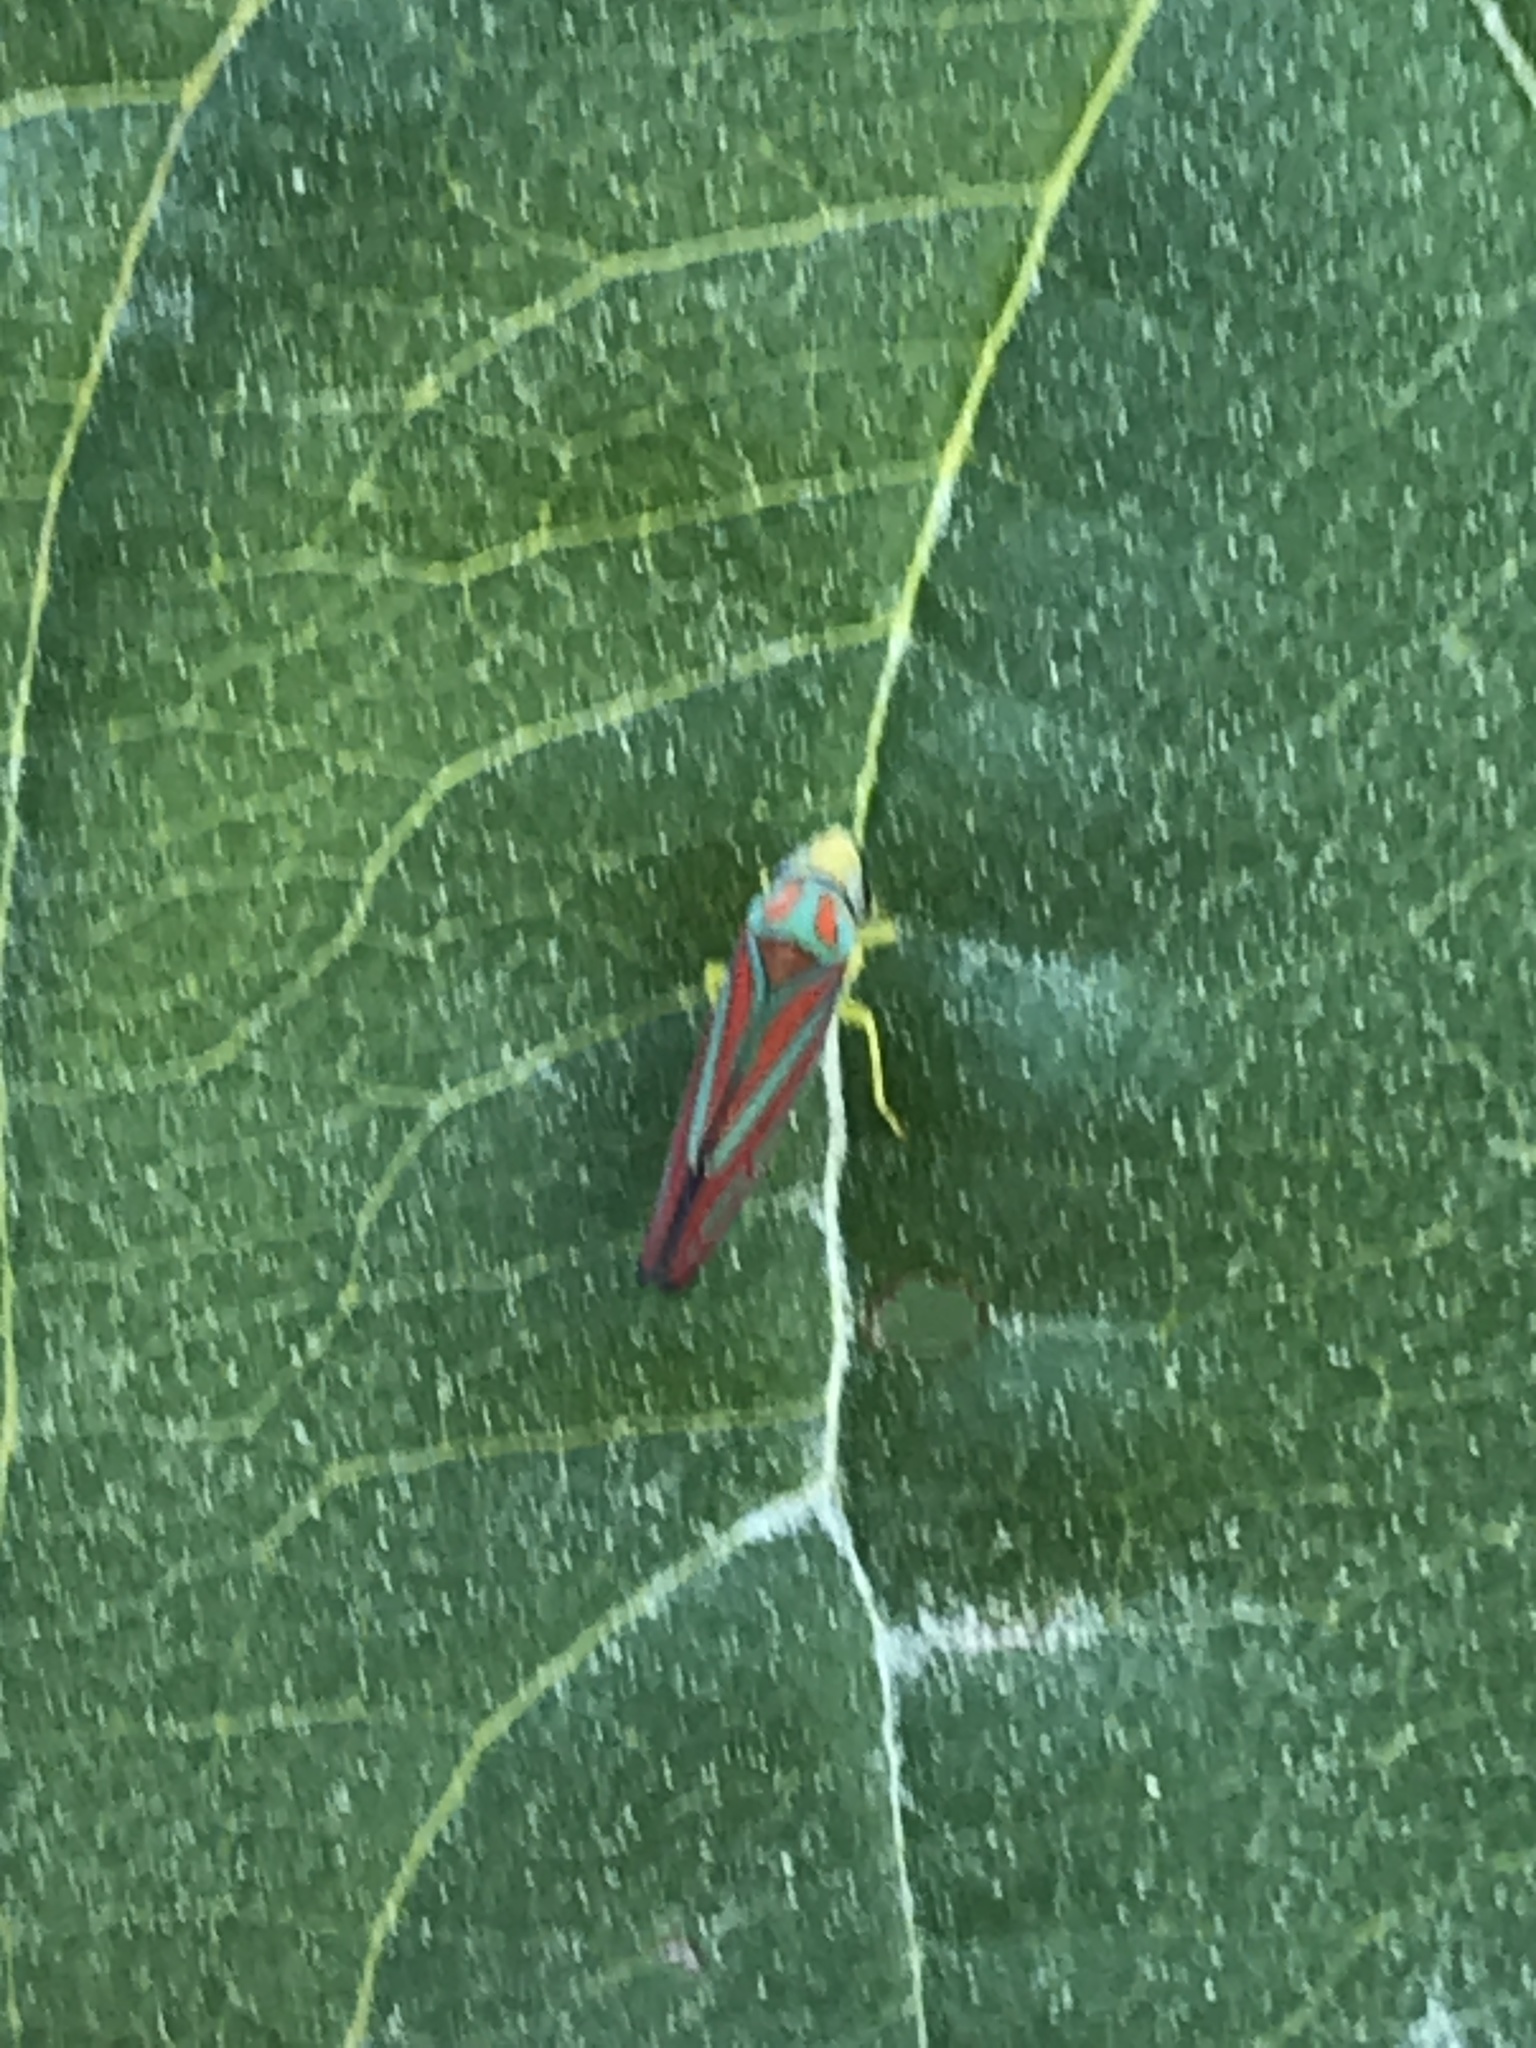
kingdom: Animalia
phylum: Arthropoda
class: Insecta
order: Hemiptera
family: Cicadellidae
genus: Graphocephala
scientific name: Graphocephala coccinea
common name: Candy-striped leafhopper
